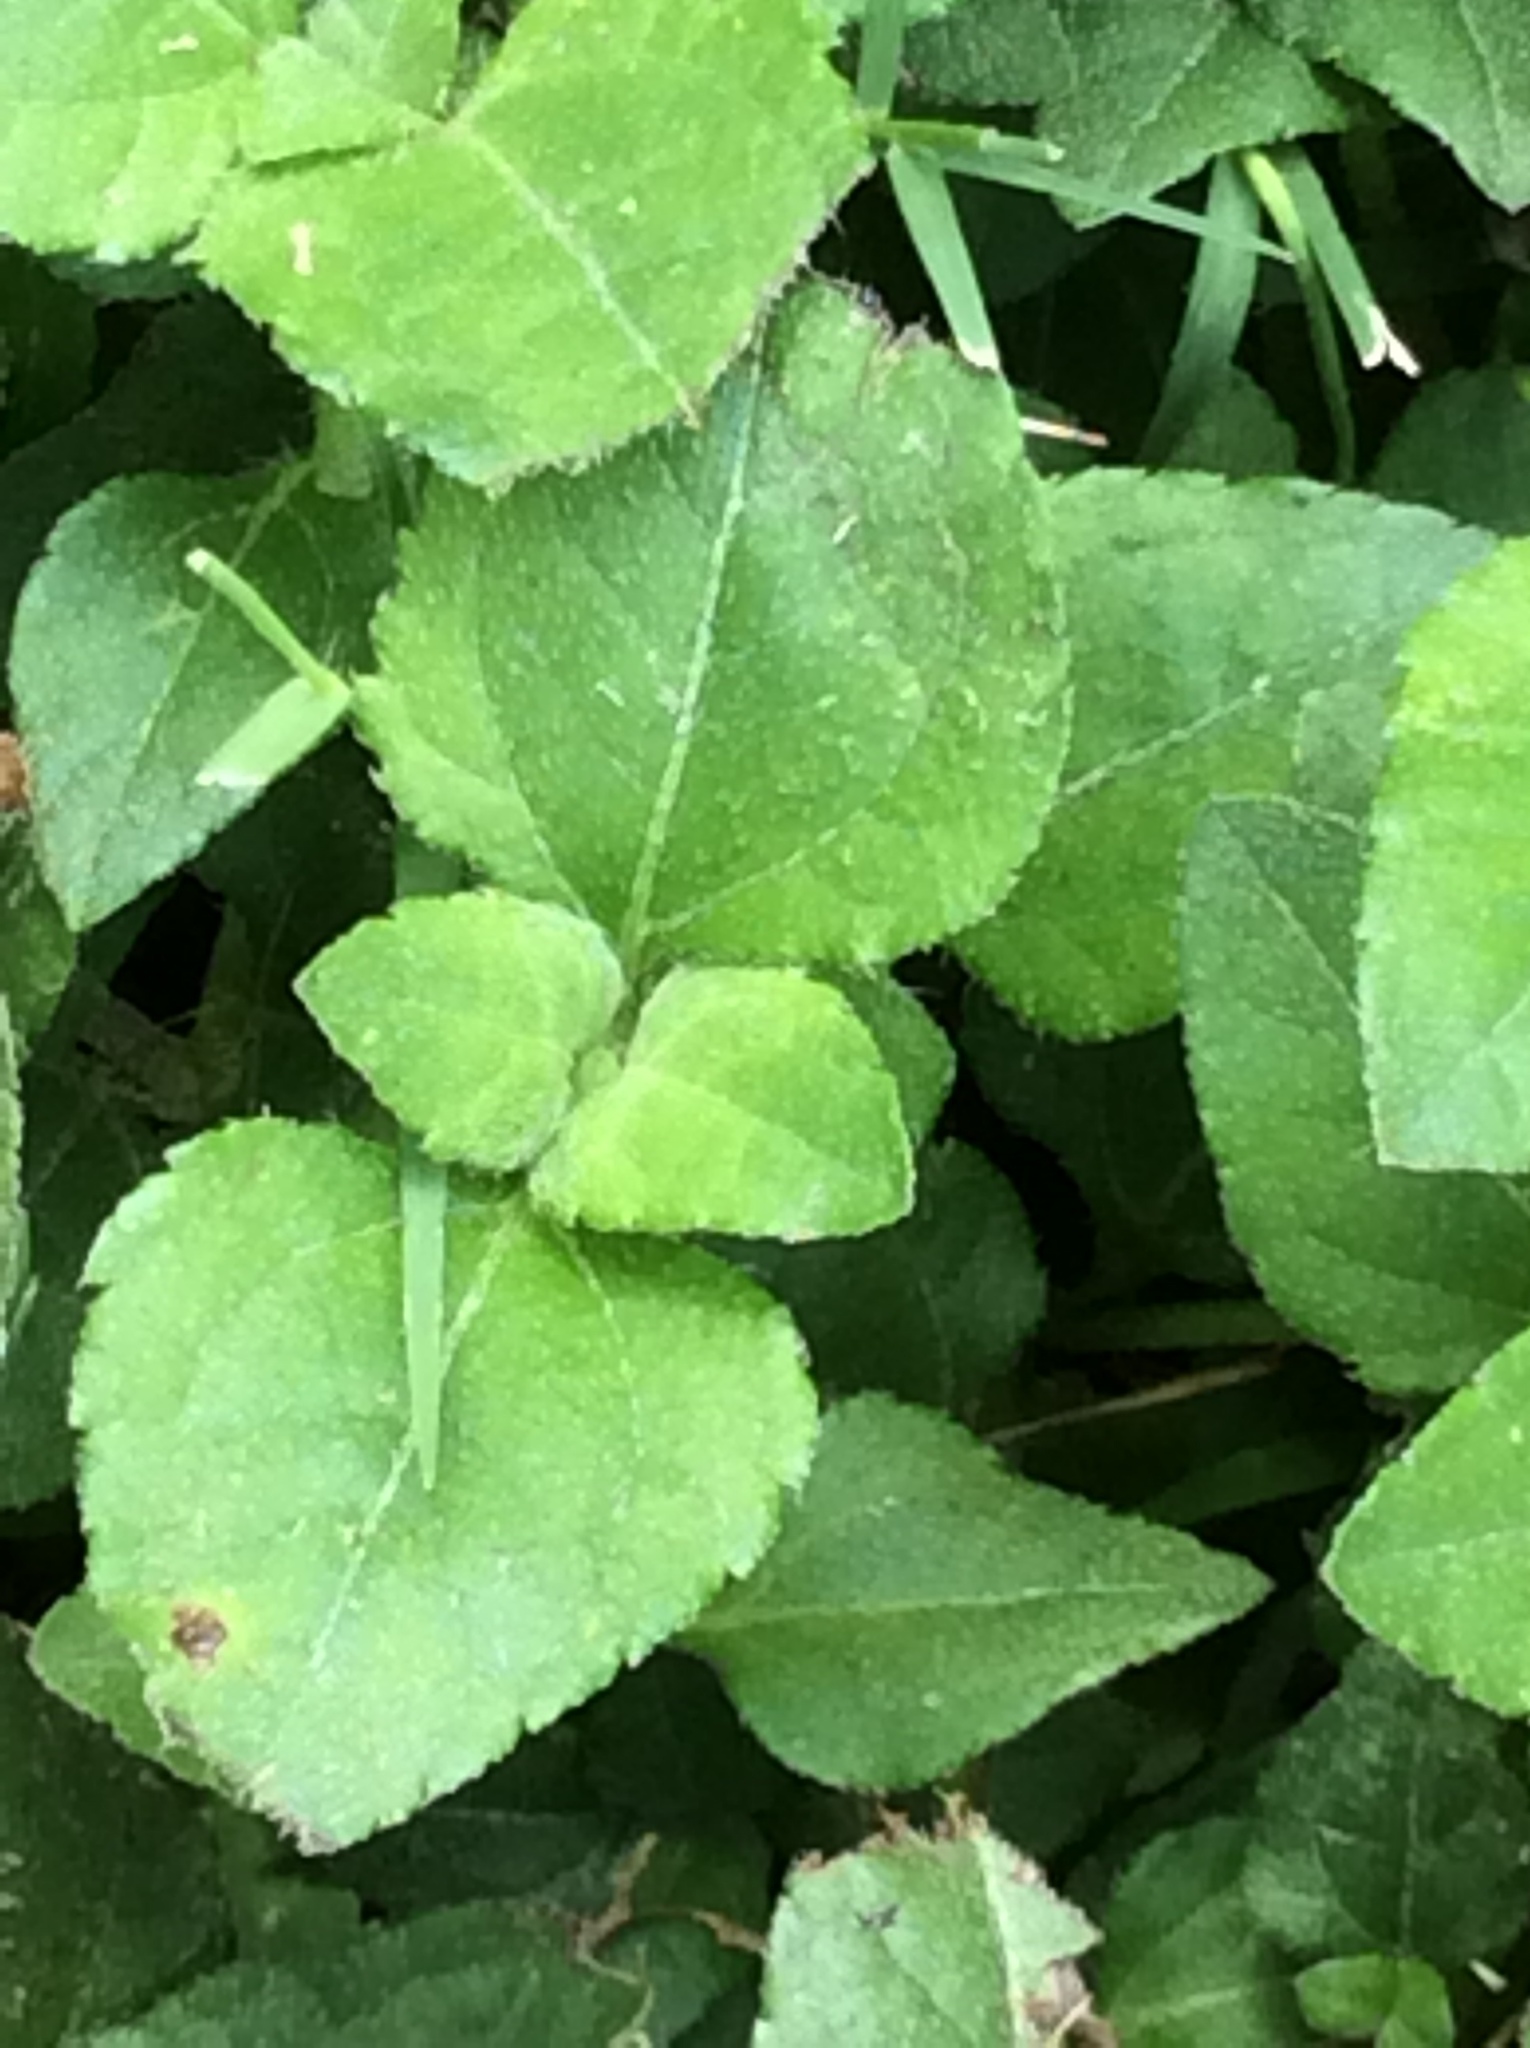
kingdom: Plantae
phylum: Tracheophyta
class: Magnoliopsida
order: Asterales
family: Asteraceae
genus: Calyptocarpus
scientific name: Calyptocarpus vialis
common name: Straggler daisy
